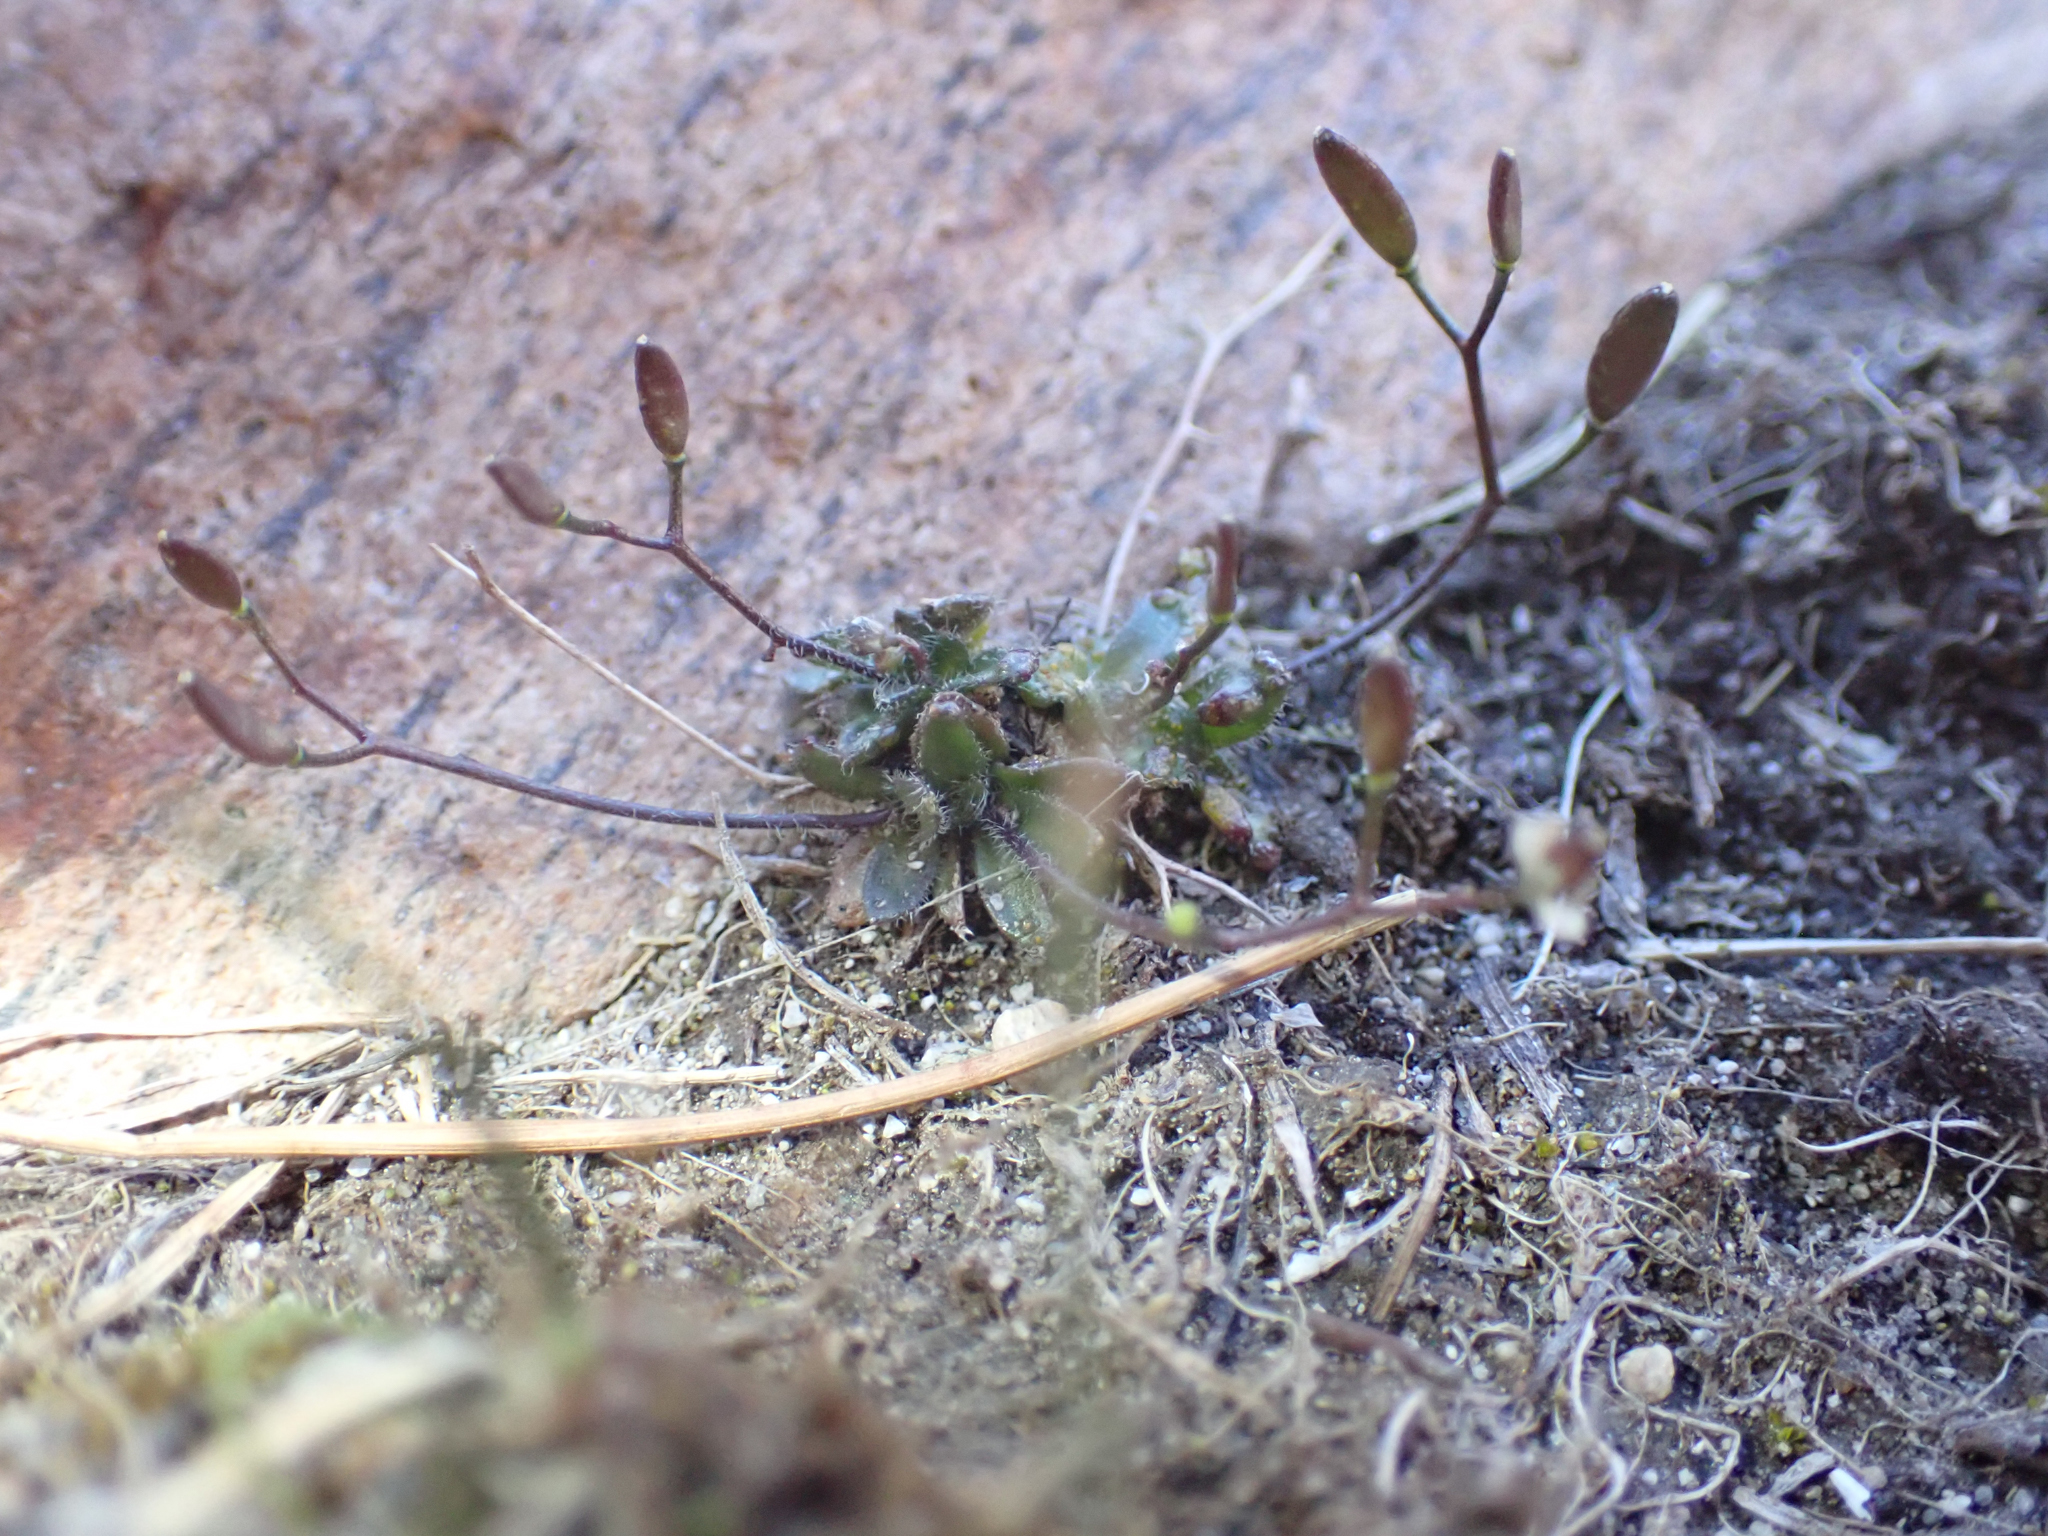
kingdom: Plantae
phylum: Tracheophyta
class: Magnoliopsida
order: Brassicales
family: Brassicaceae
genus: Draba
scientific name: Draba albertina
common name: Slender draba
